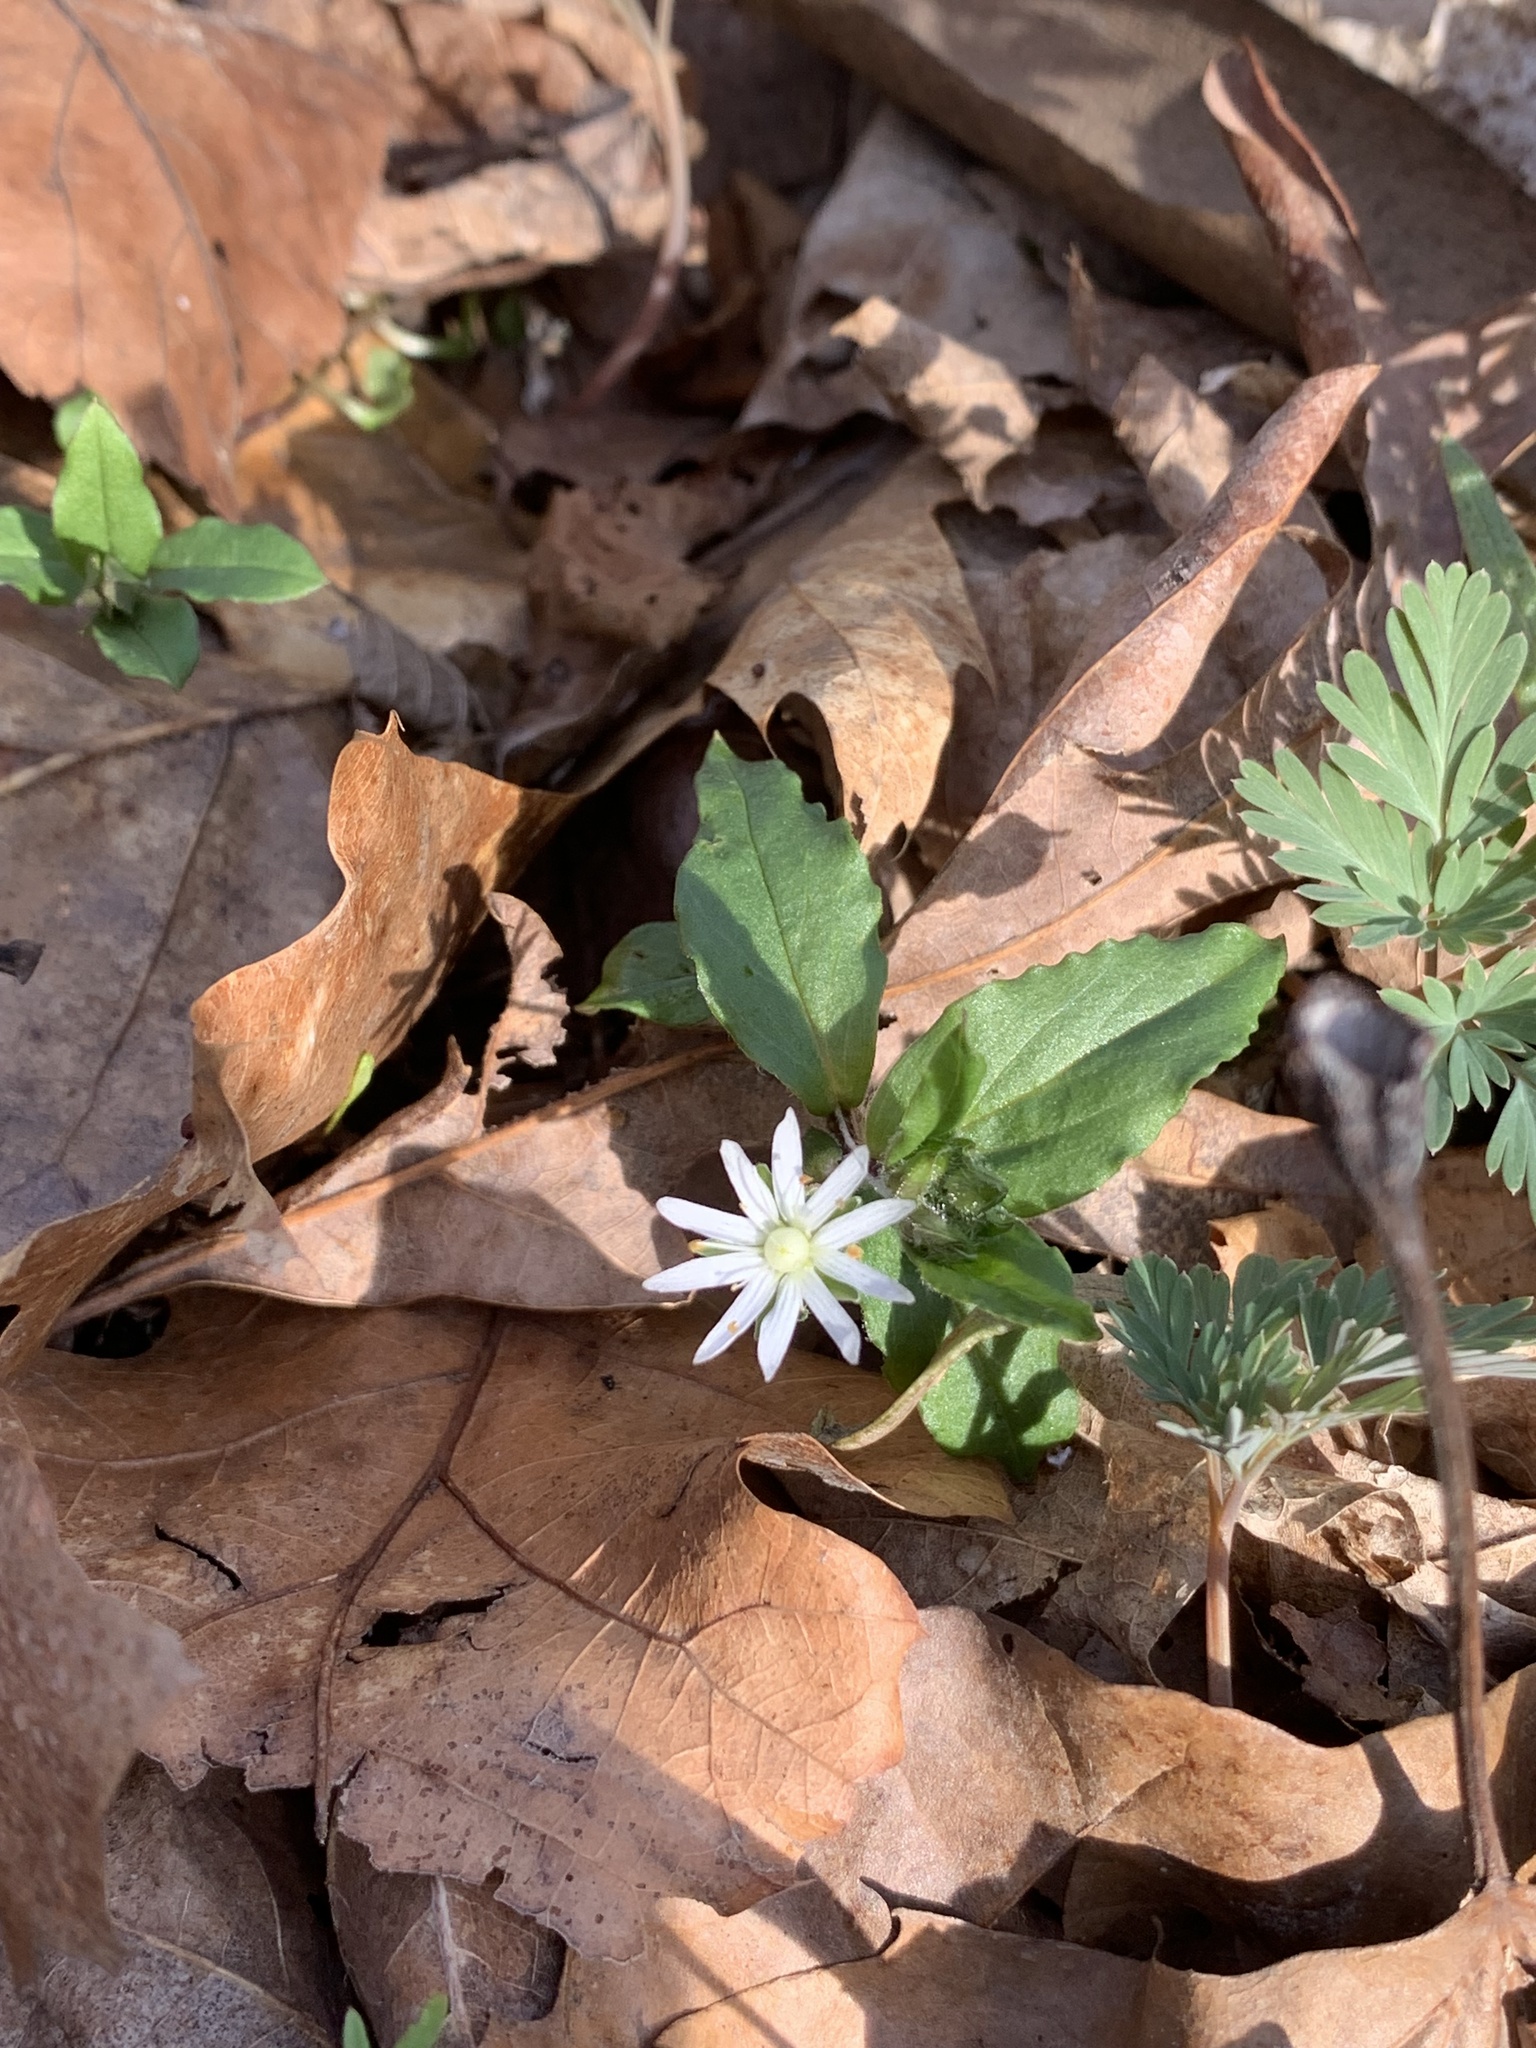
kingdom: Plantae
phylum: Tracheophyta
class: Magnoliopsida
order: Caryophyllales
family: Caryophyllaceae
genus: Stellaria
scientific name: Stellaria pubera
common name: Star chickweed
